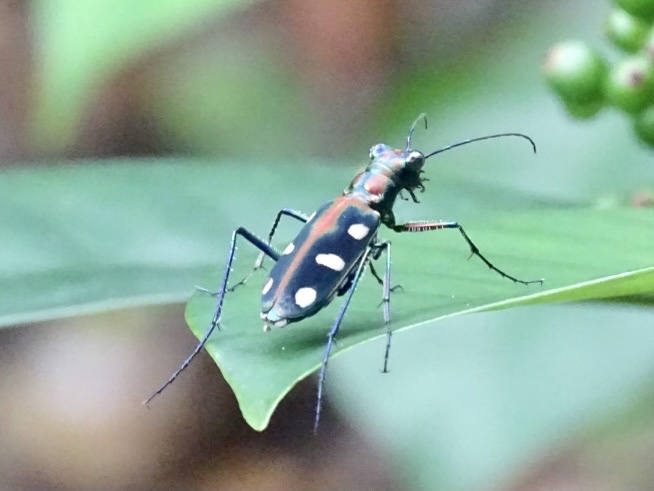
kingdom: Animalia
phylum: Arthropoda
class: Insecta
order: Coleoptera
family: Carabidae
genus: Cicindela
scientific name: Cicindela juxtata
